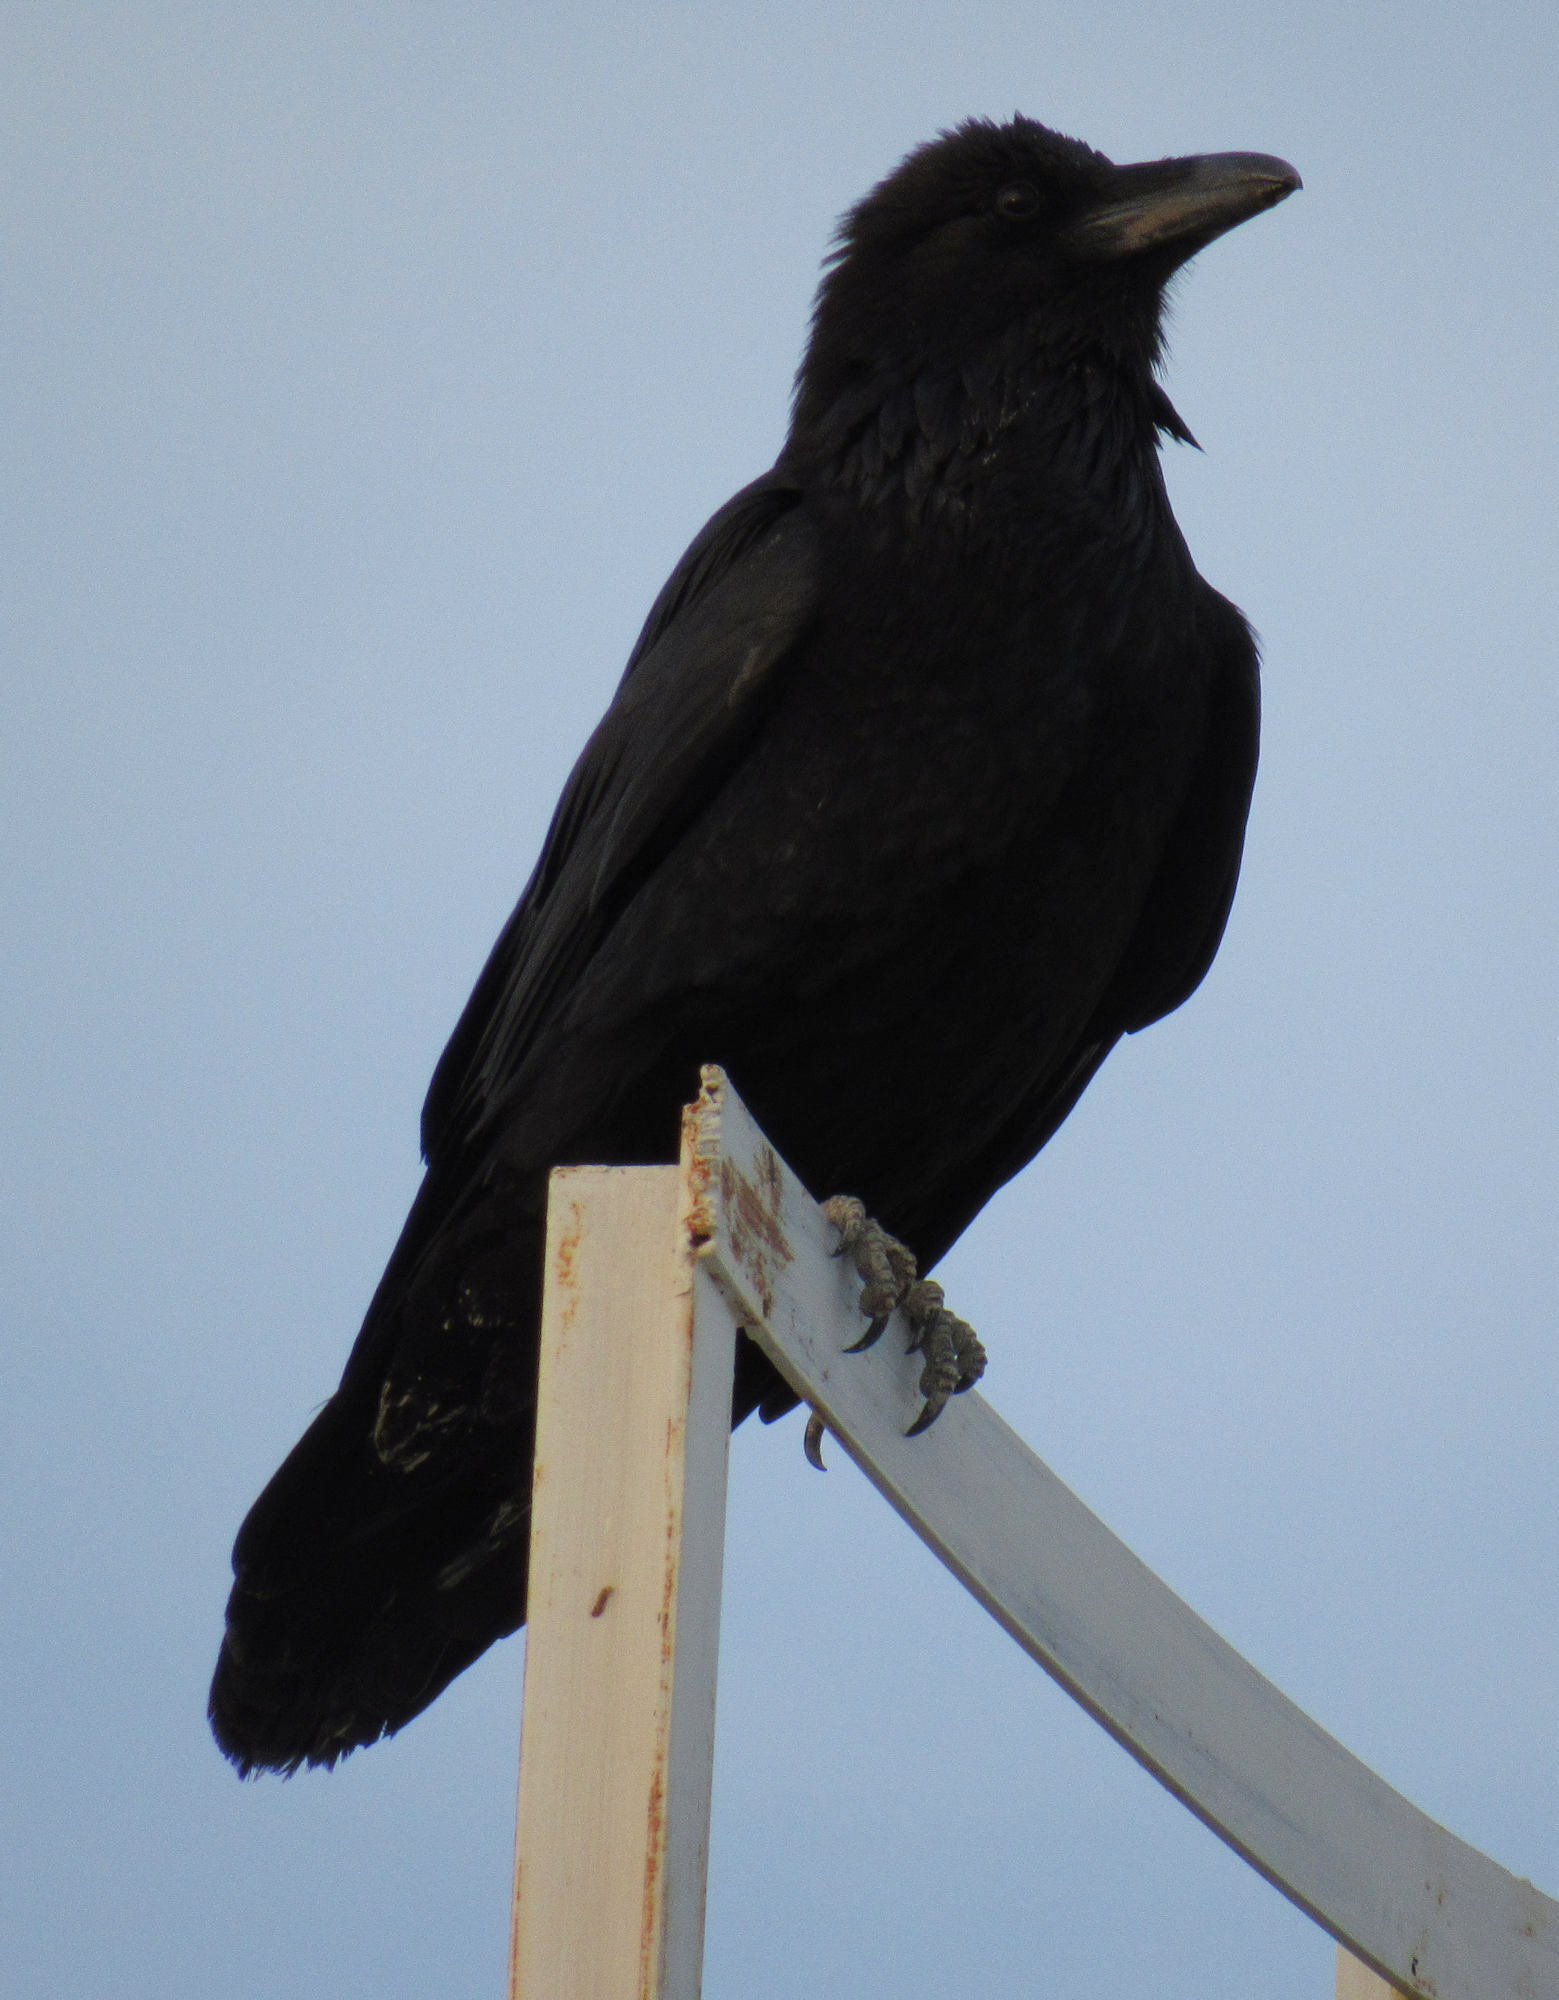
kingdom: Animalia
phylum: Chordata
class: Aves
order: Passeriformes
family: Corvidae
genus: Corvus
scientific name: Corvus corax
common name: Common raven
